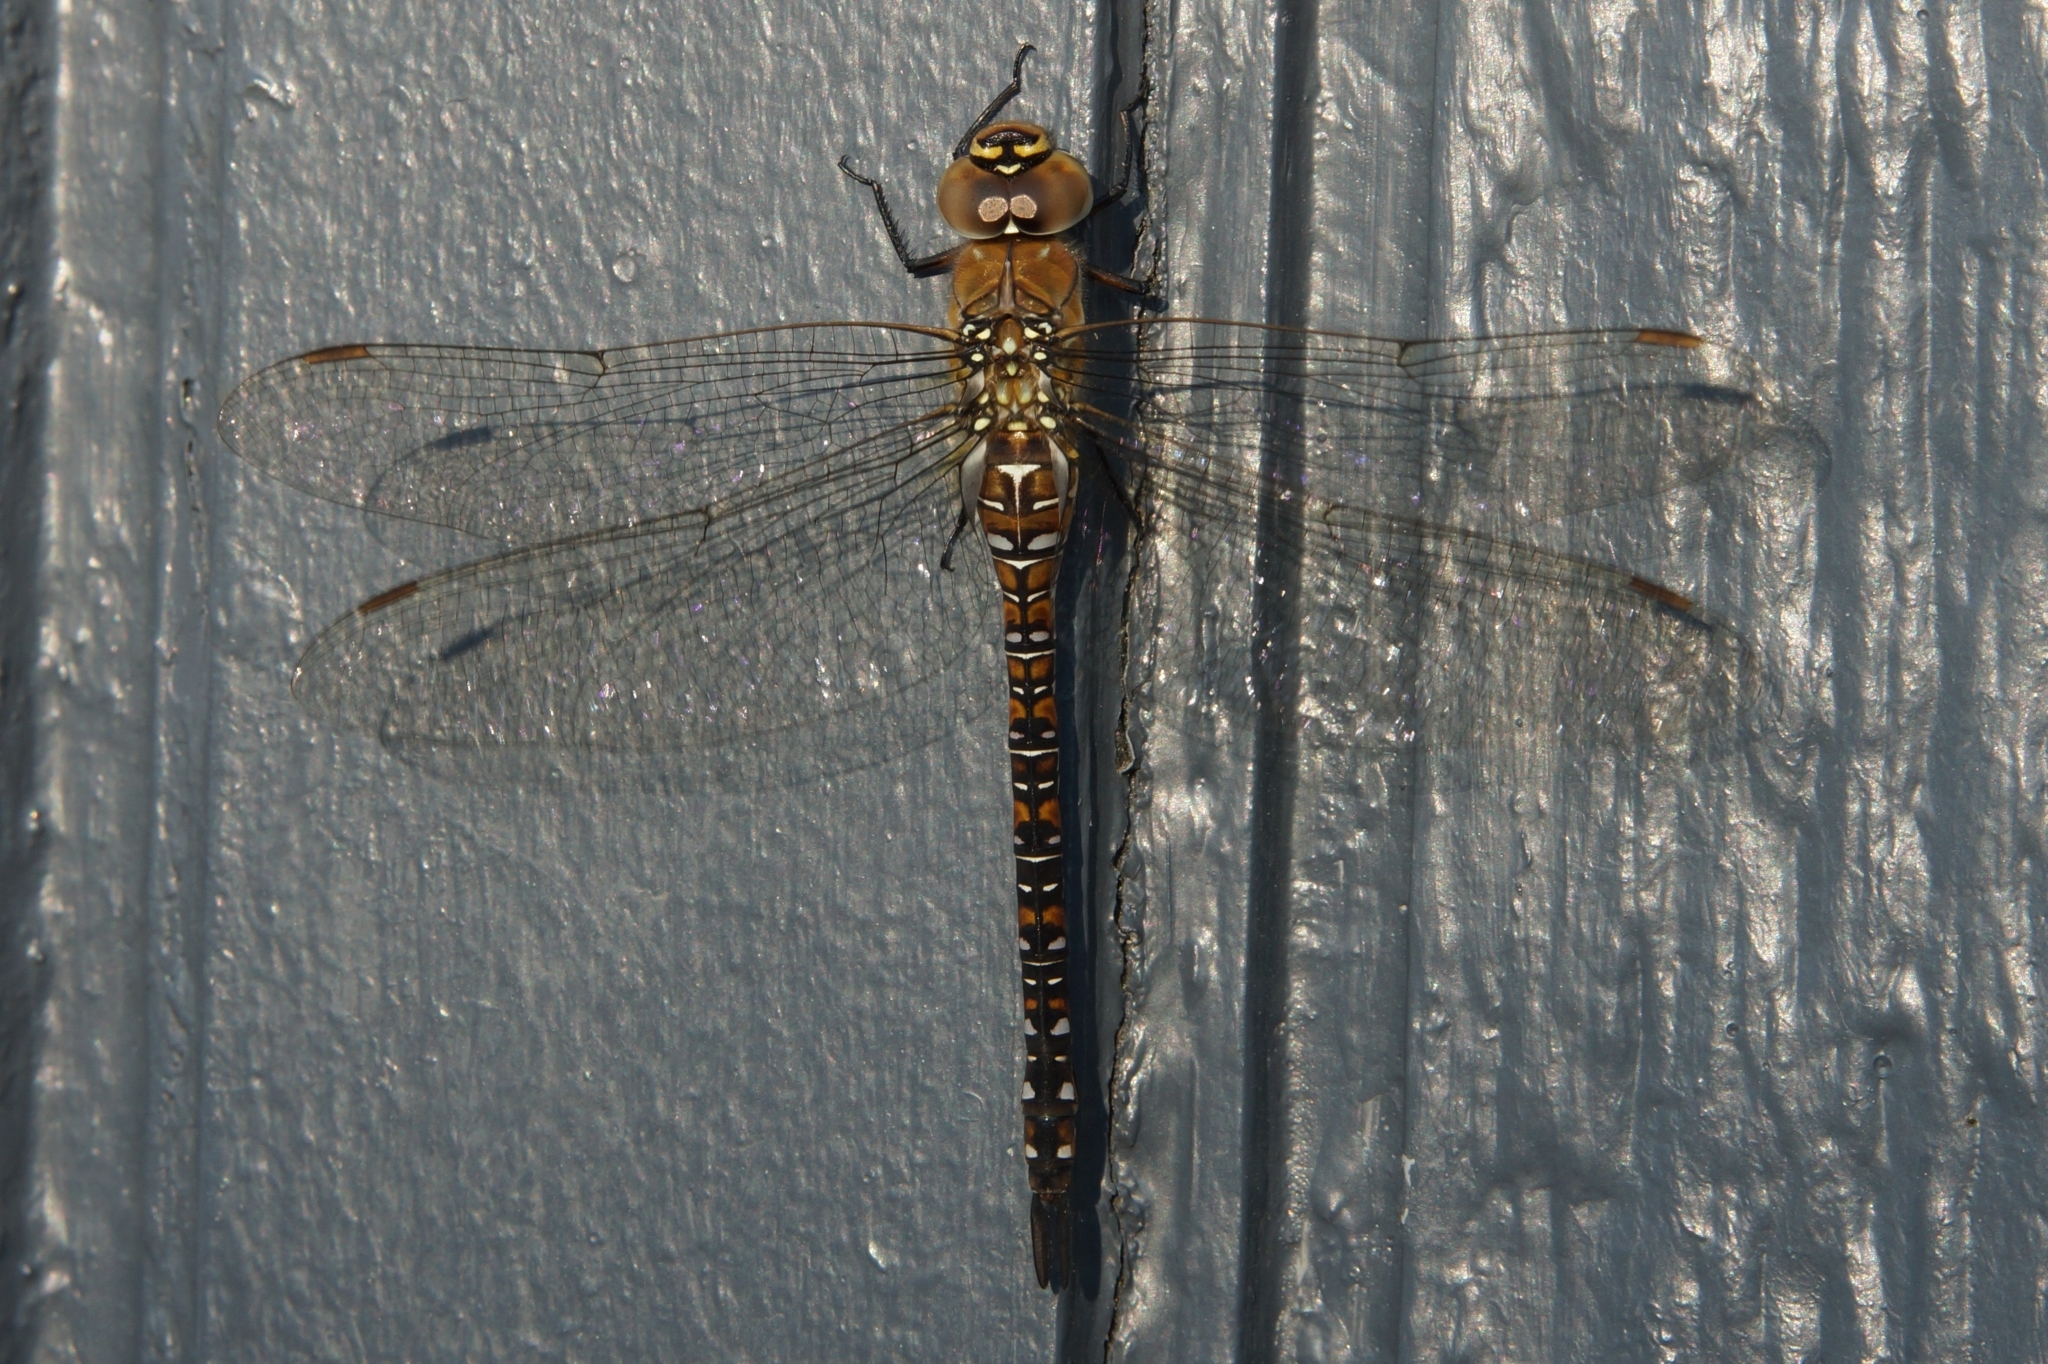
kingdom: Animalia
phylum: Arthropoda
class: Insecta
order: Odonata
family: Aeshnidae
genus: Aeshna
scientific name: Aeshna mixta
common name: Migrant hawker
